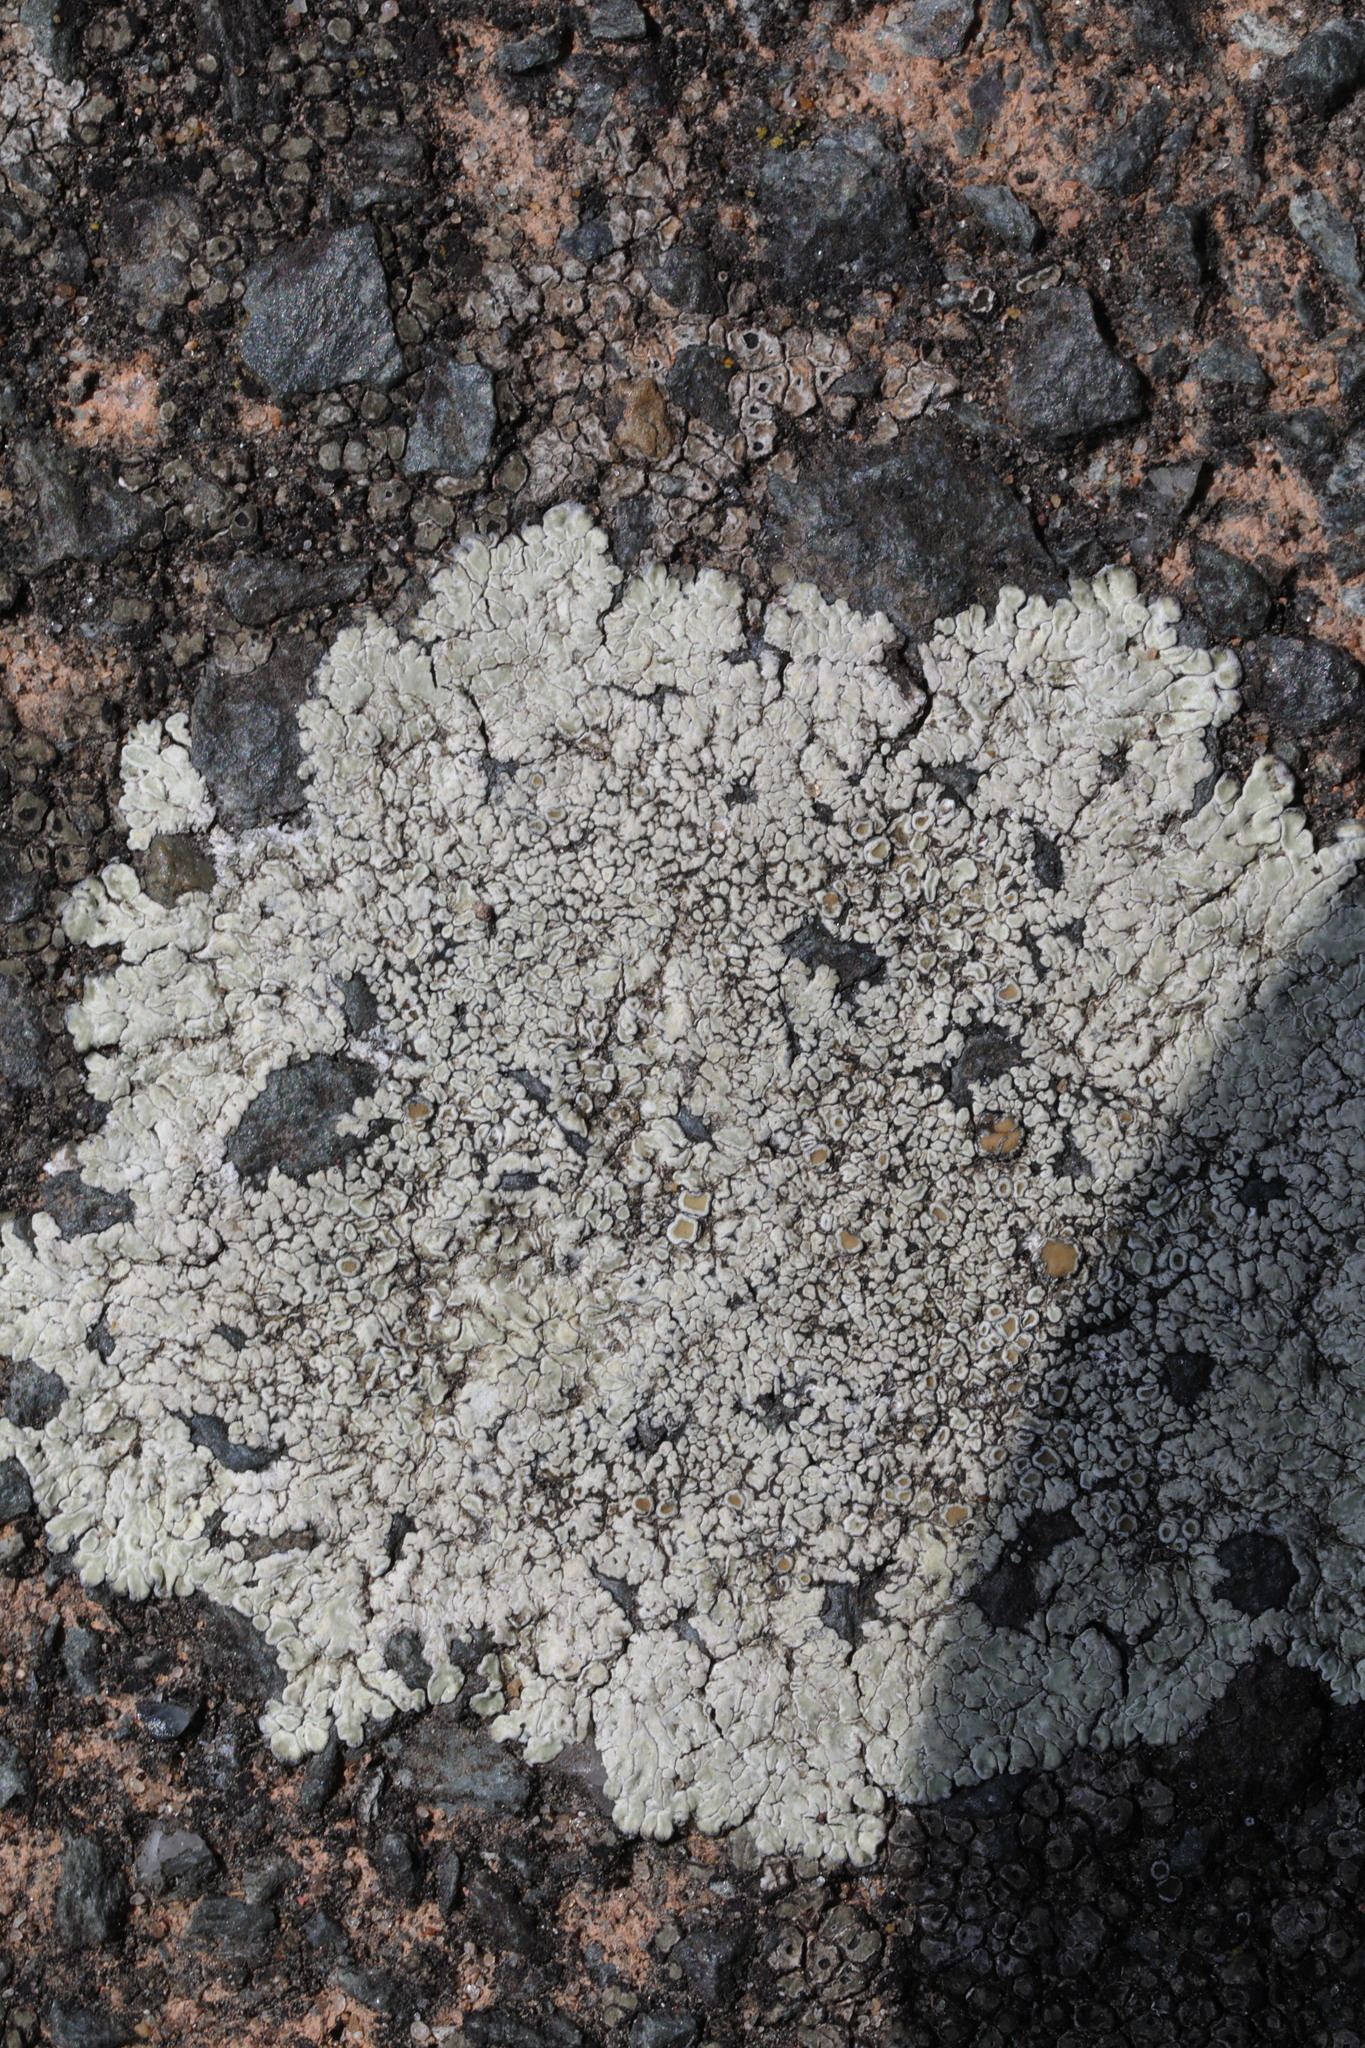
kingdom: Fungi
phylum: Ascomycota
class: Lecanoromycetes
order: Lecanorales
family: Lecanoraceae
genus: Protoparmeliopsis
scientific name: Protoparmeliopsis muralis
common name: Stonewall rim lichen
